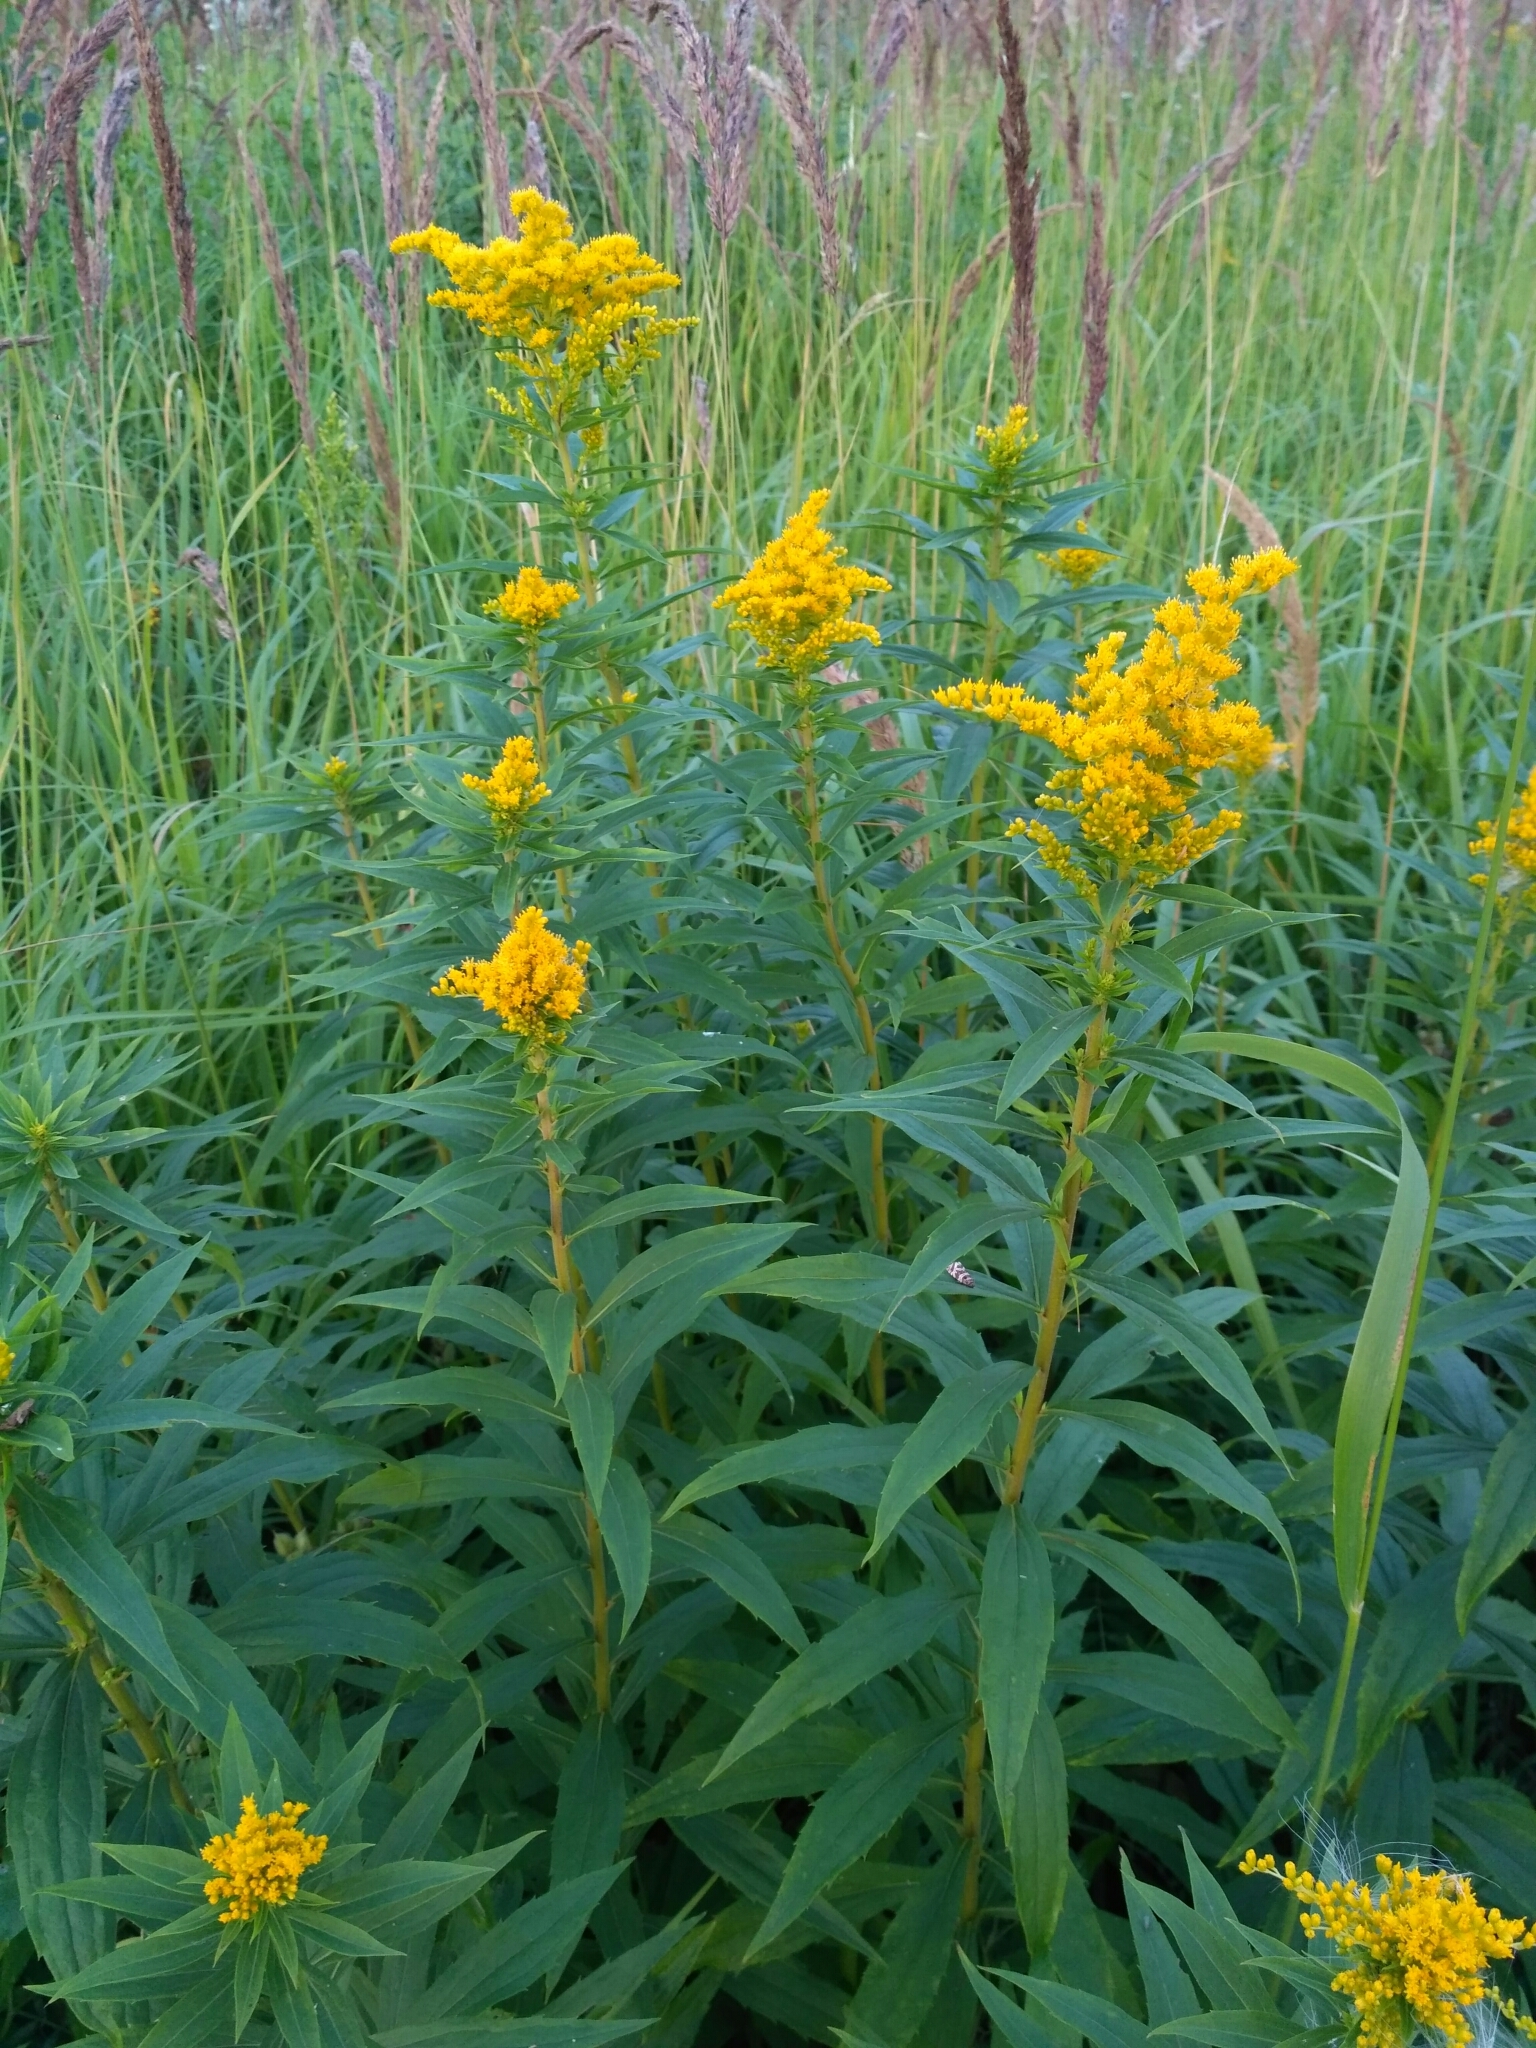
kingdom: Plantae
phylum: Tracheophyta
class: Magnoliopsida
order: Asterales
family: Asteraceae
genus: Solidago
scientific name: Solidago canadensis
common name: Canada goldenrod
